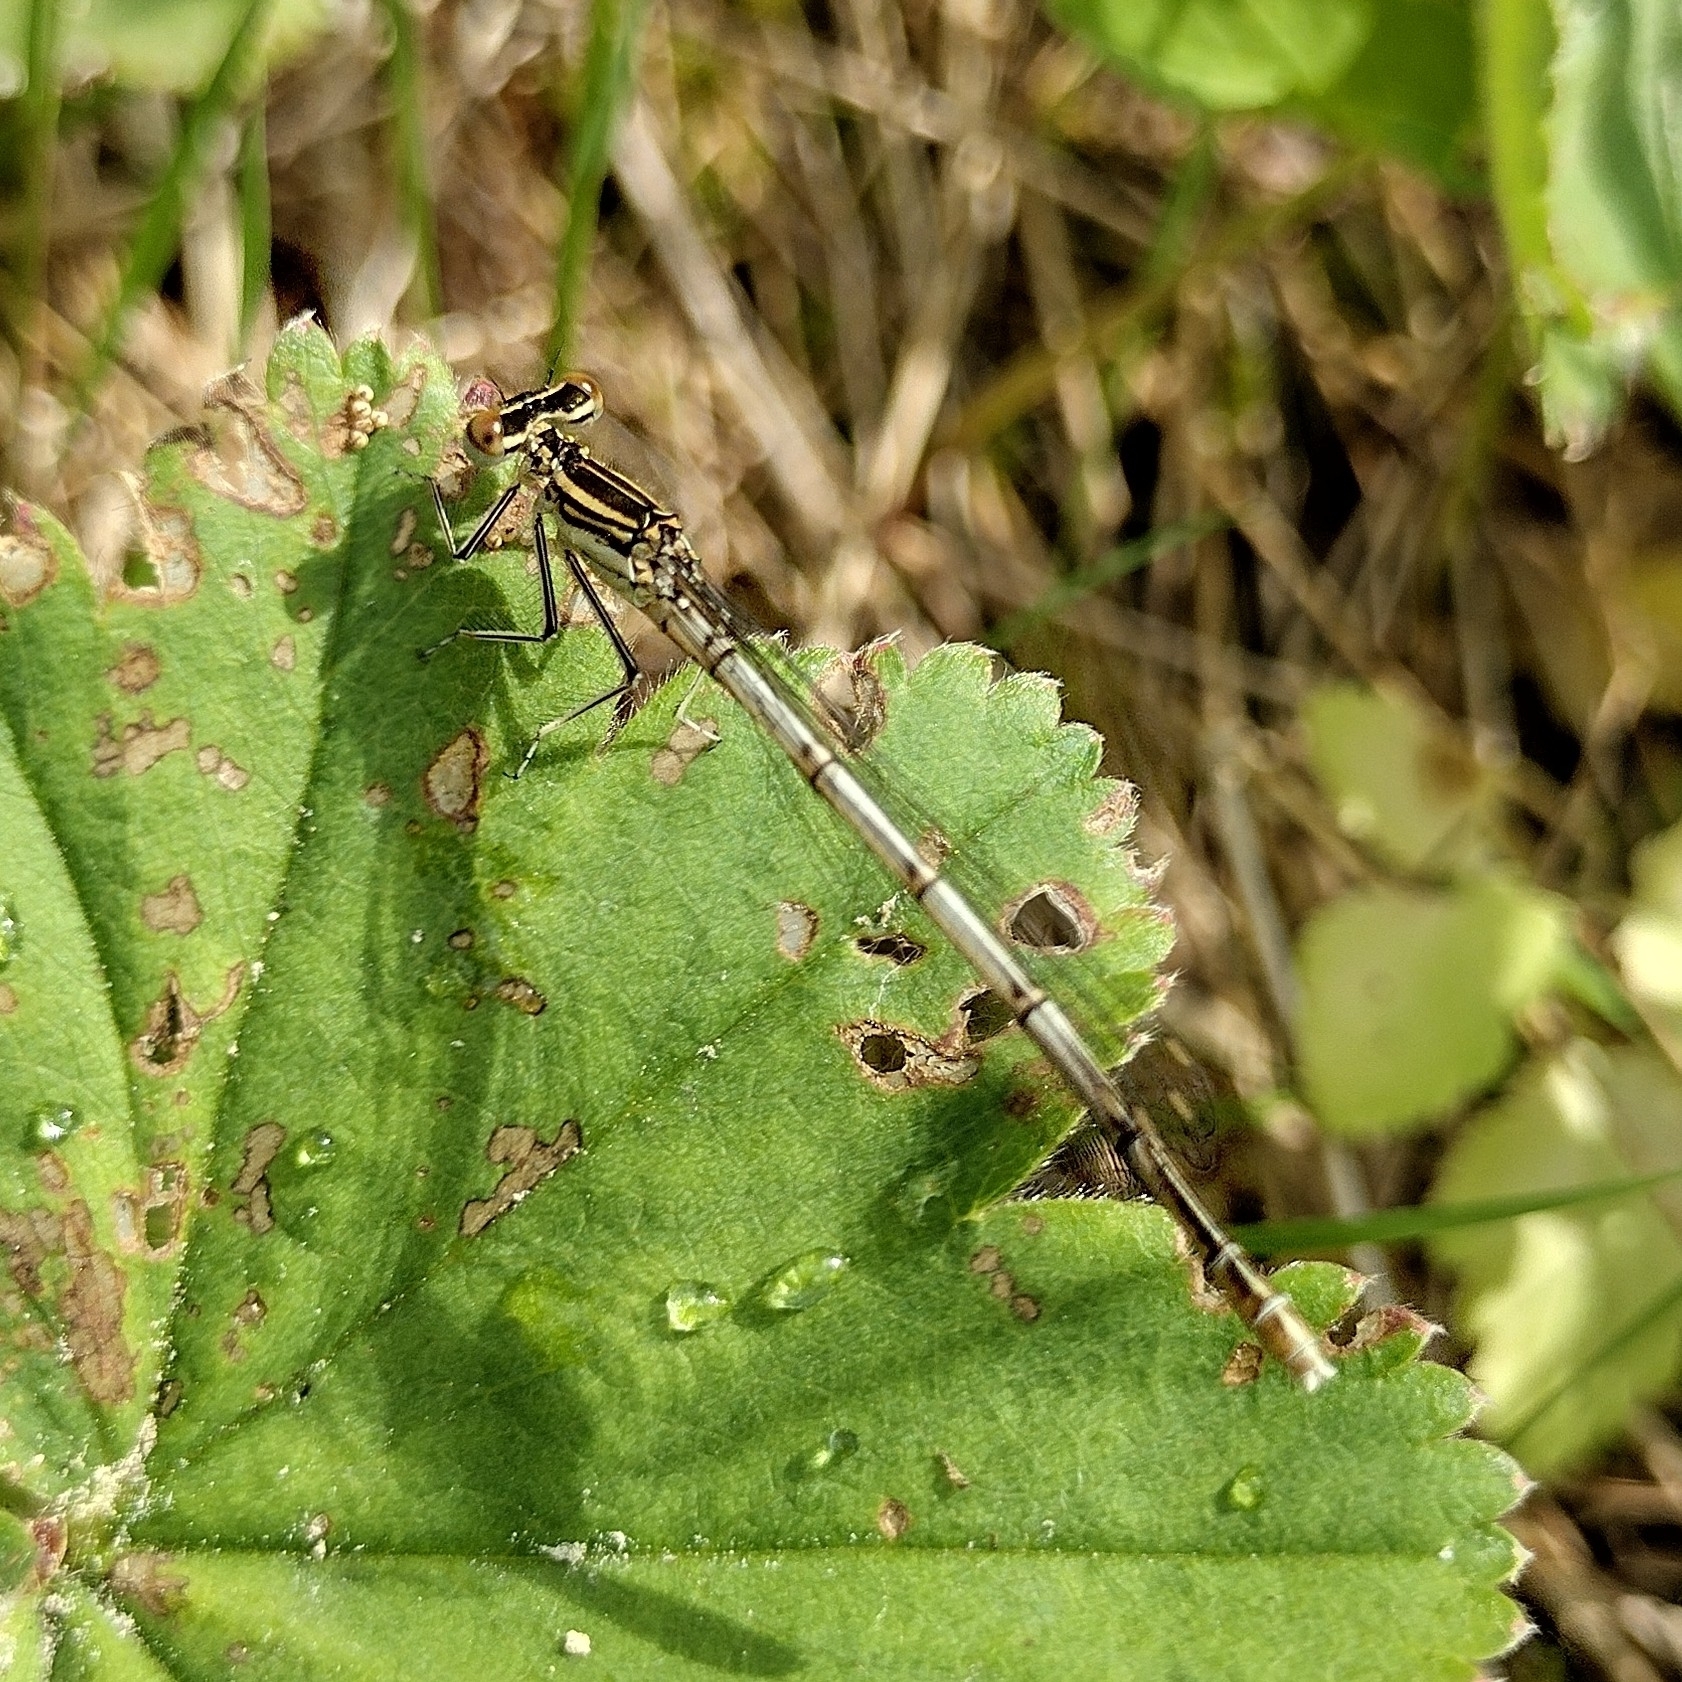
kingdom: Animalia
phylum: Arthropoda
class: Insecta
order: Odonata
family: Platycnemididae
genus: Platycnemis
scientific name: Platycnemis pennipes
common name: White-legged damselfly
